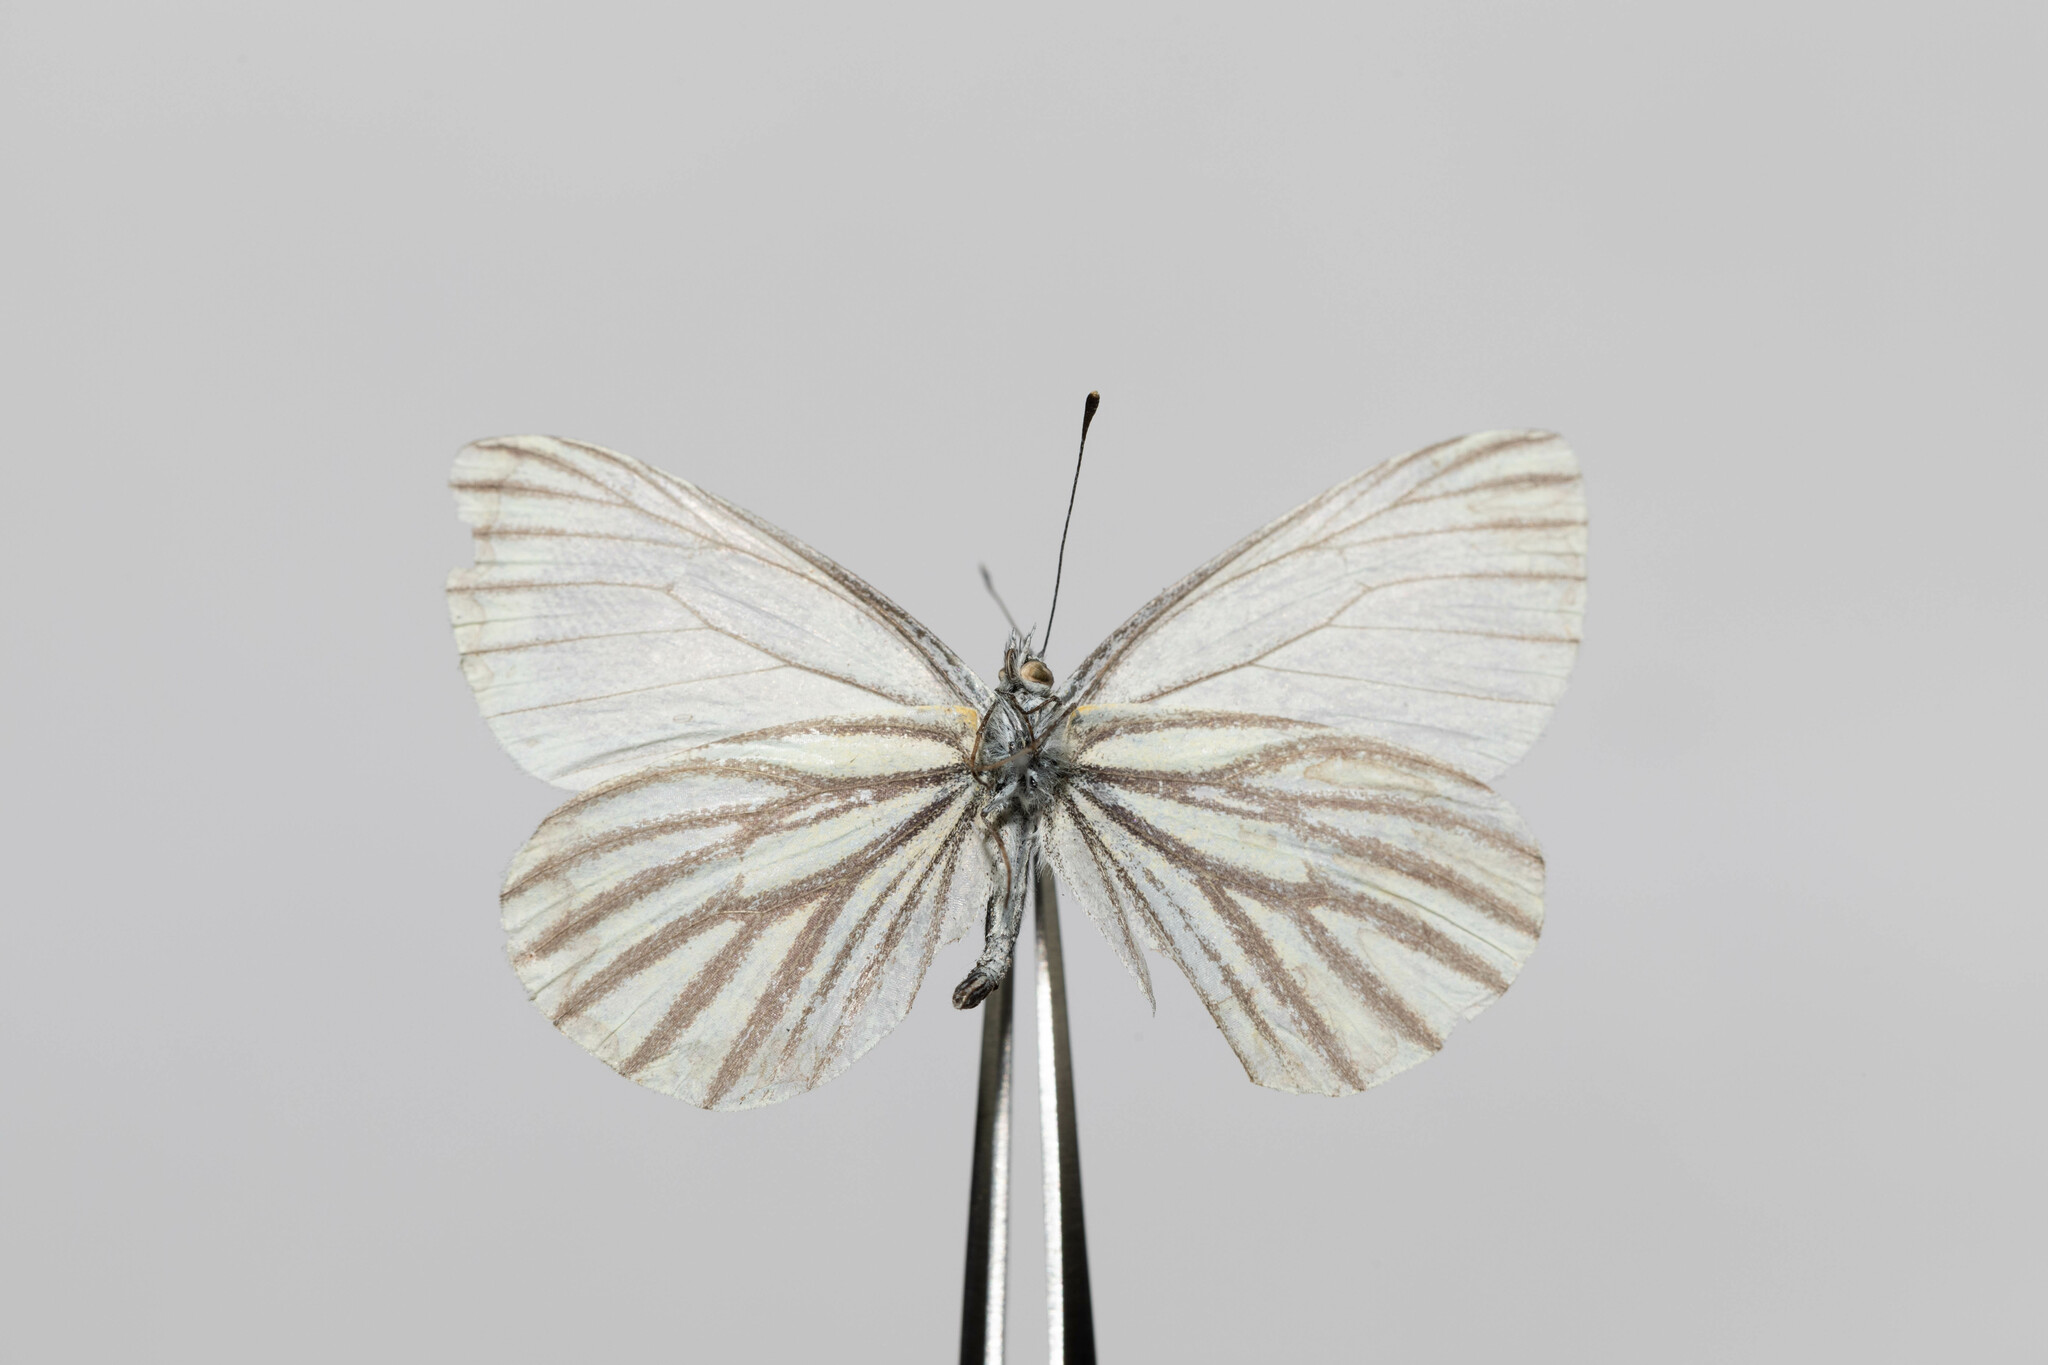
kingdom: Animalia
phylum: Arthropoda
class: Insecta
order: Lepidoptera
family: Pieridae
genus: Pieris
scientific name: Pieris oleracea
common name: Mustard white
